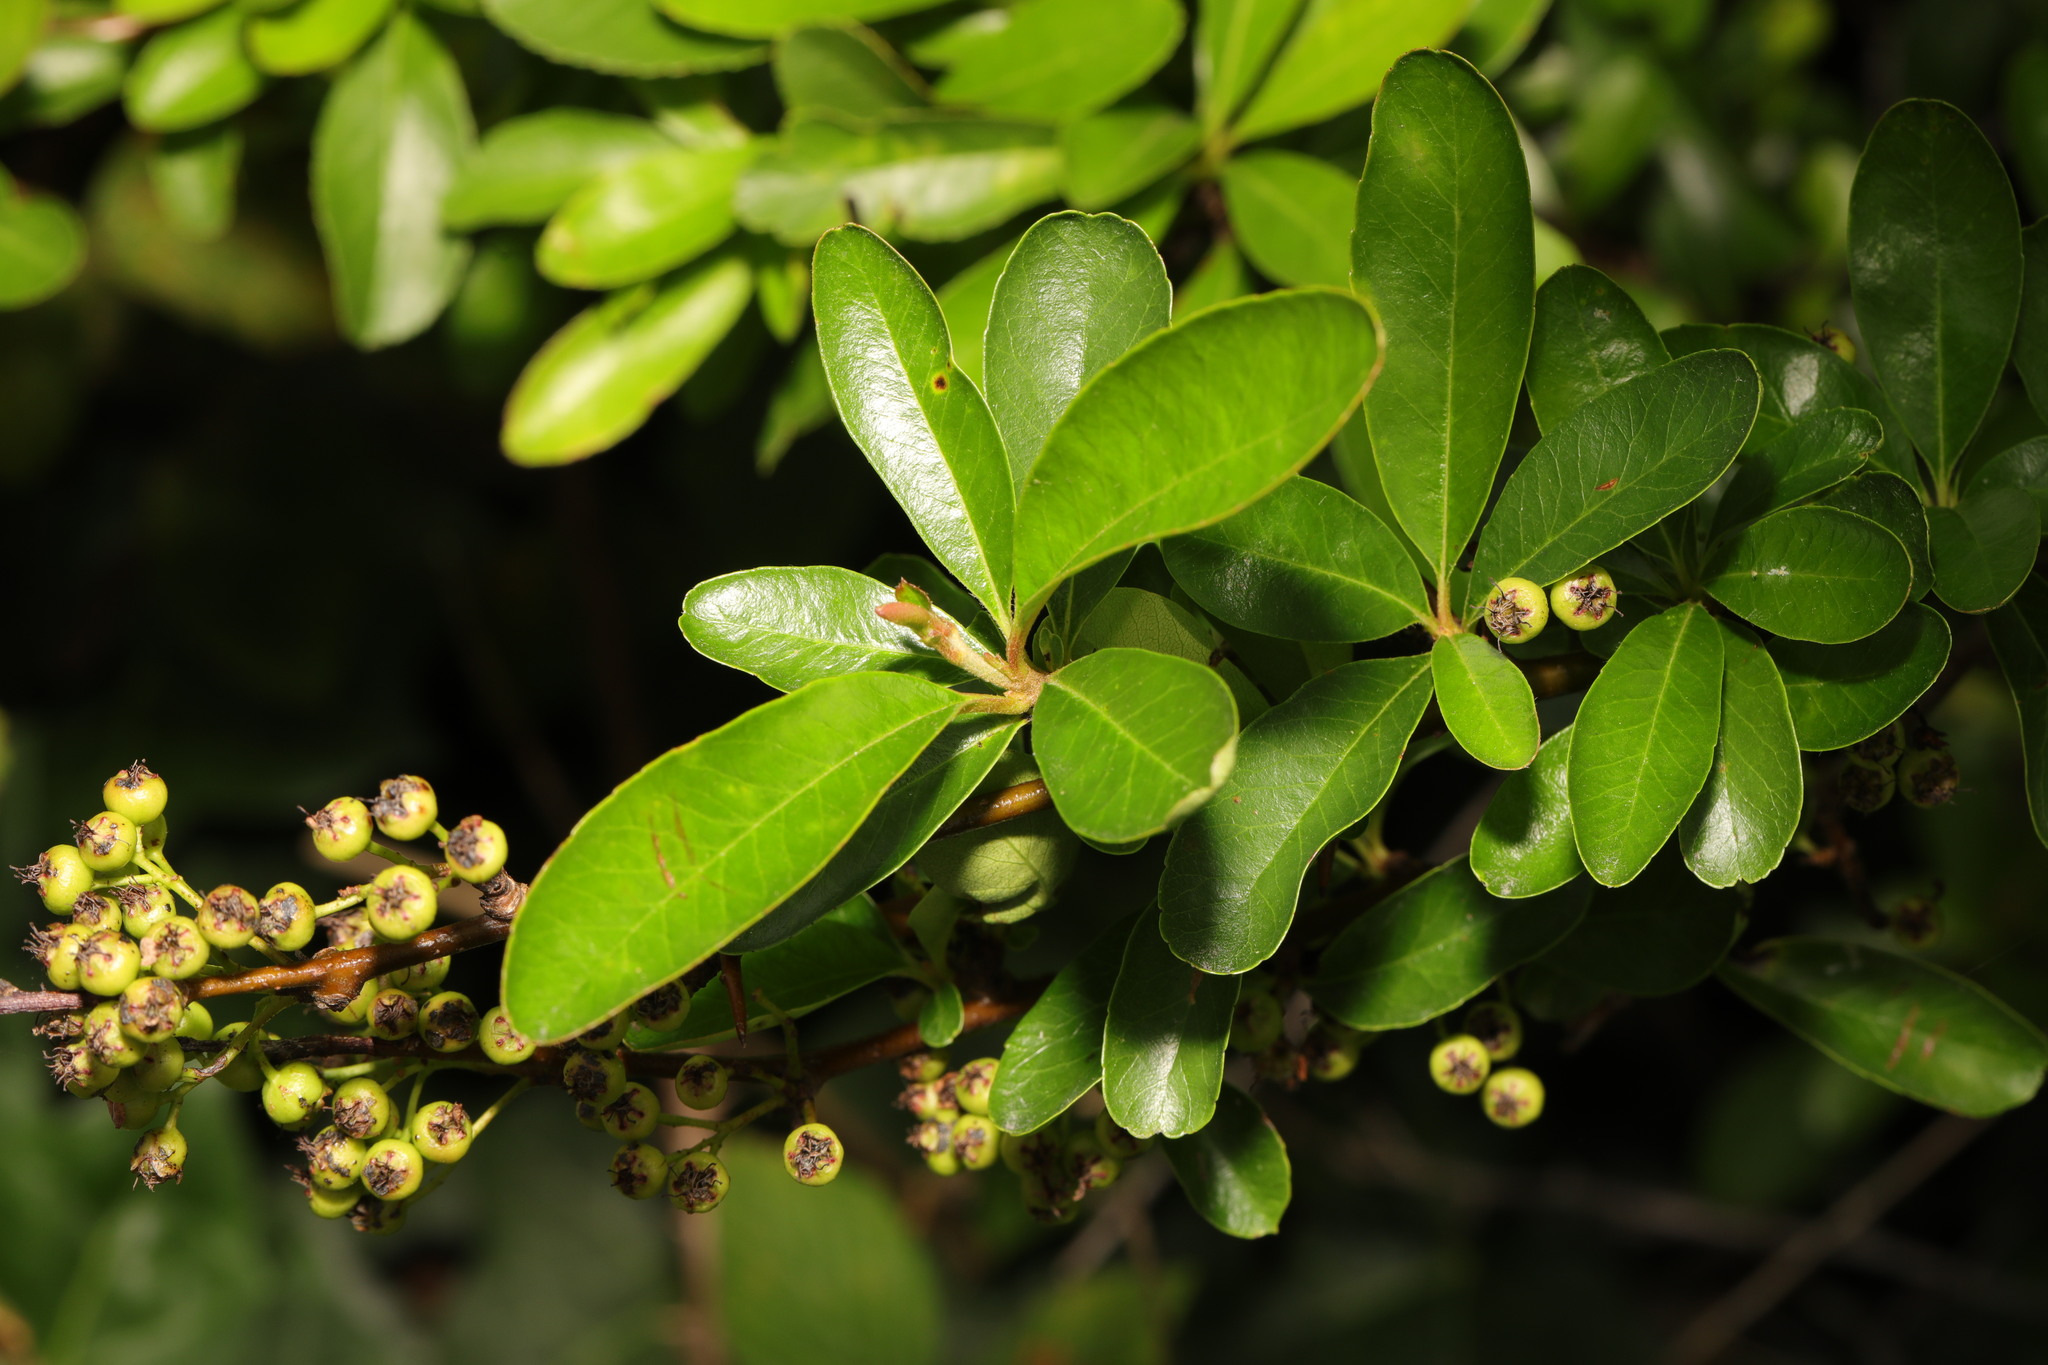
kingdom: Plantae
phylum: Tracheophyta
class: Magnoliopsida
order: Rosales
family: Rosaceae
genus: Pyracantha
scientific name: Pyracantha coccinea
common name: Firethorn
